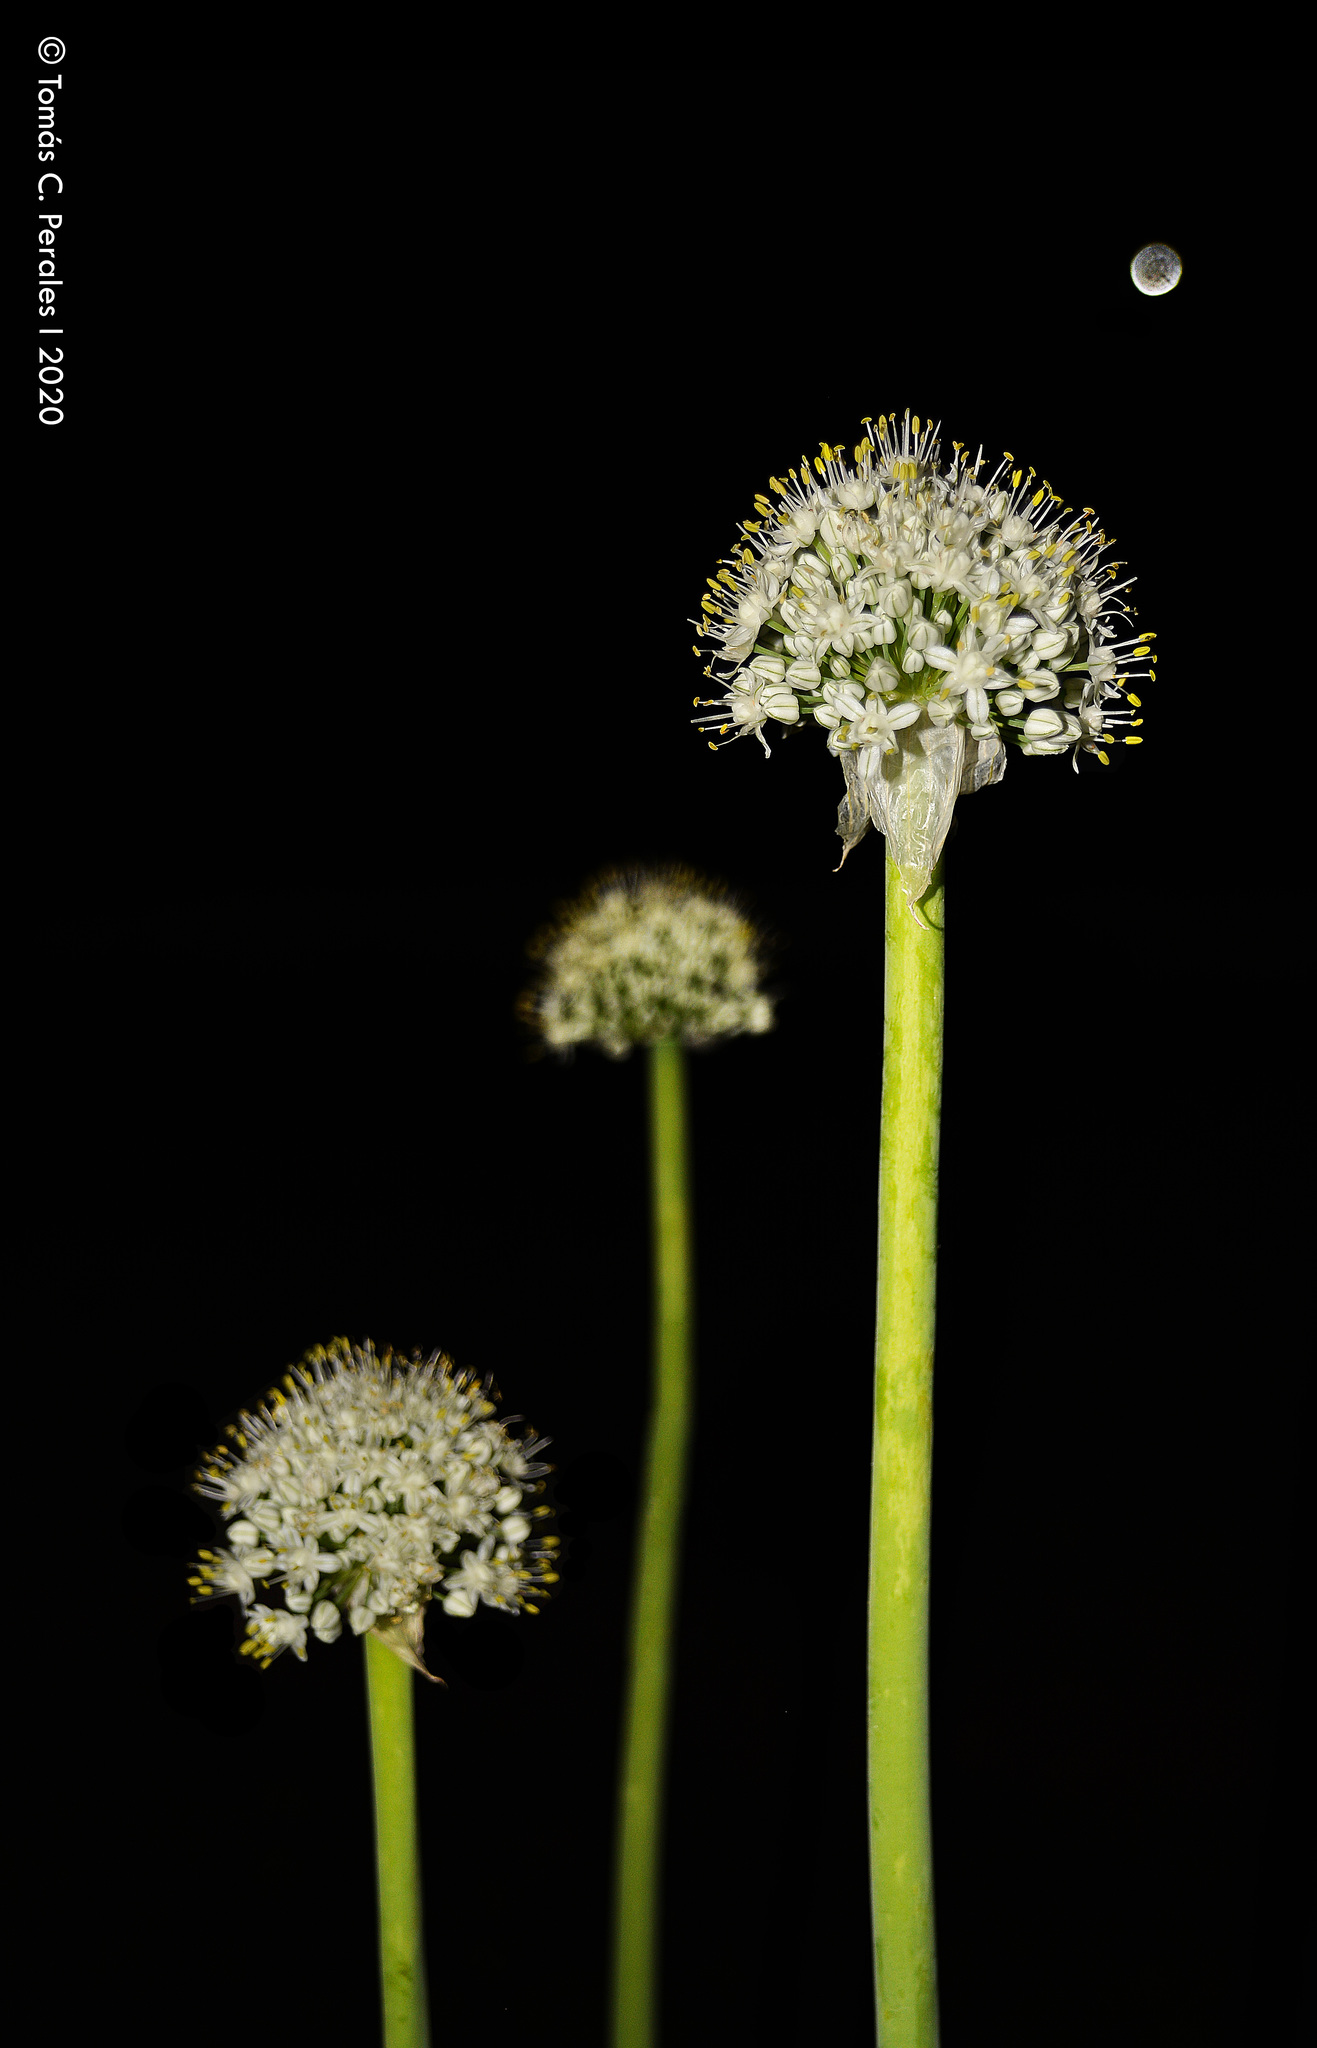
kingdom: Plantae
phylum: Tracheophyta
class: Liliopsida
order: Asparagales
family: Amaryllidaceae
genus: Allium
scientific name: Allium cepa
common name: Onion
